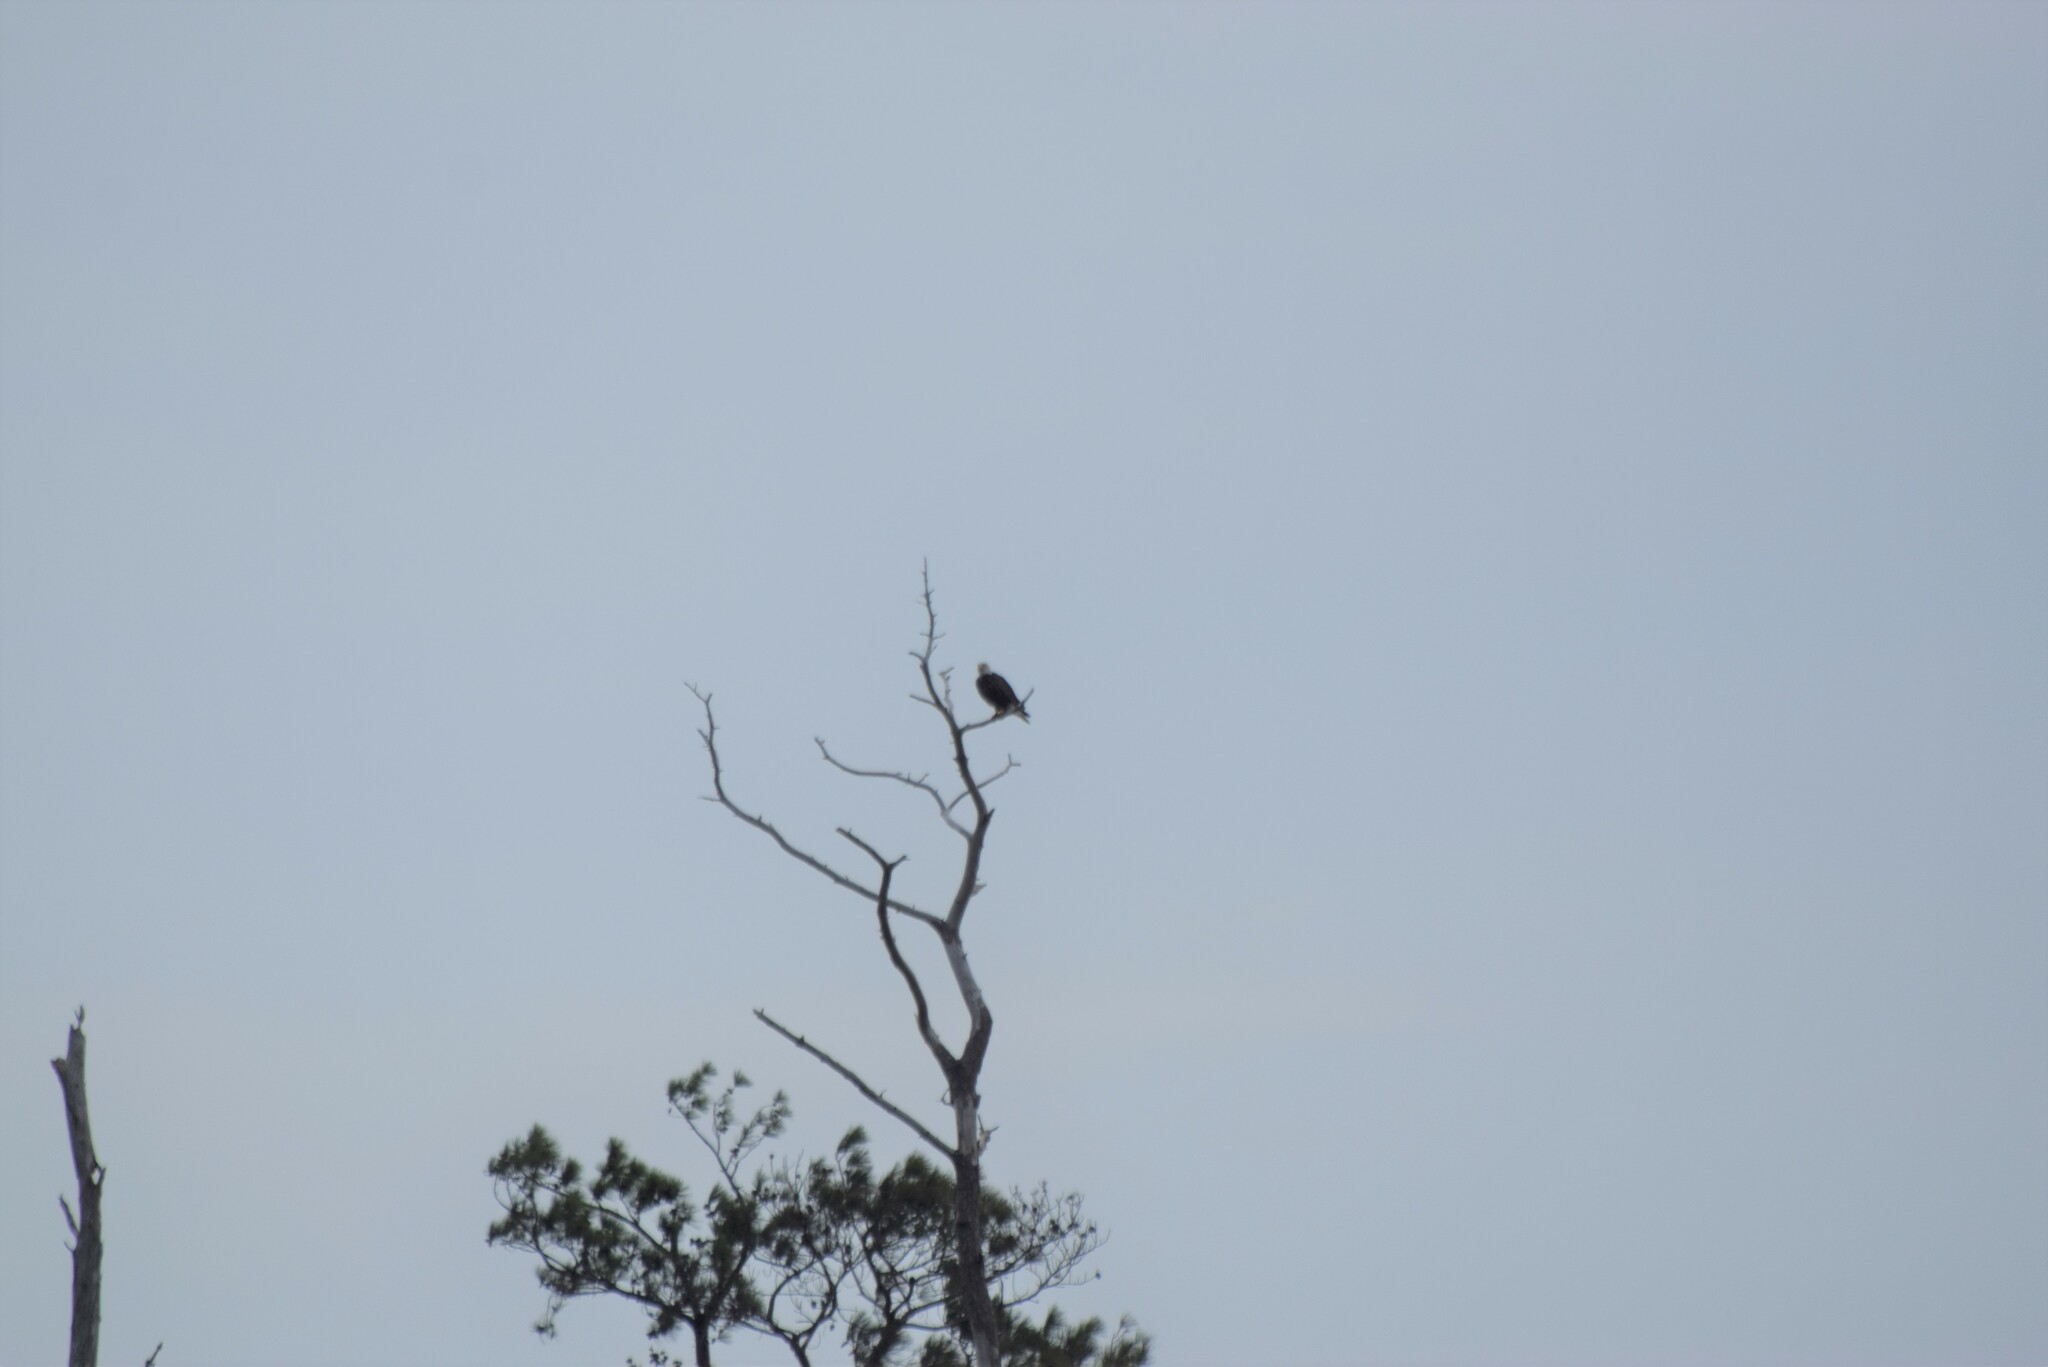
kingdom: Animalia
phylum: Chordata
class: Aves
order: Accipitriformes
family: Accipitridae
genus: Haliaeetus
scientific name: Haliaeetus leucocephalus
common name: Bald eagle
